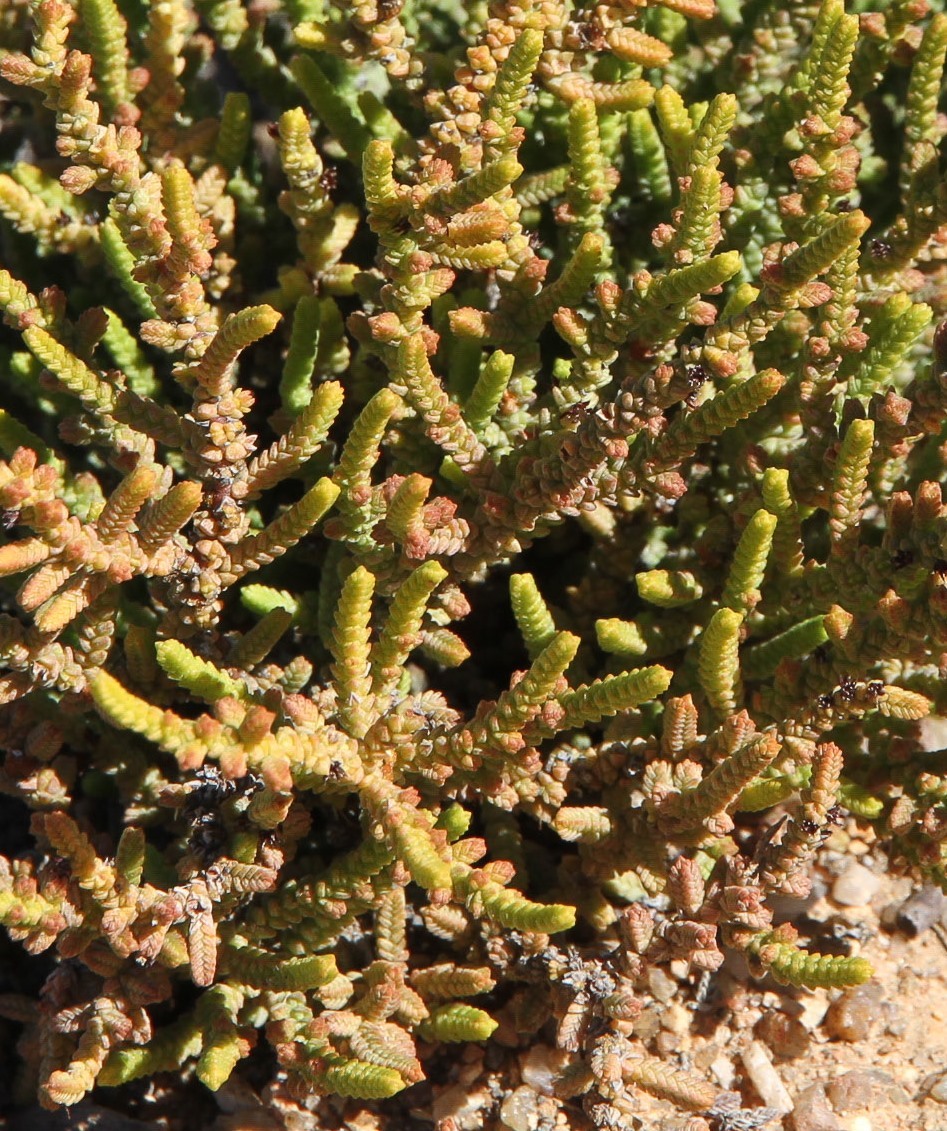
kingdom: Plantae
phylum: Tracheophyta
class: Magnoliopsida
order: Saxifragales
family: Crassulaceae
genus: Crassula
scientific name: Crassula muscosa
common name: Toy-cypress
